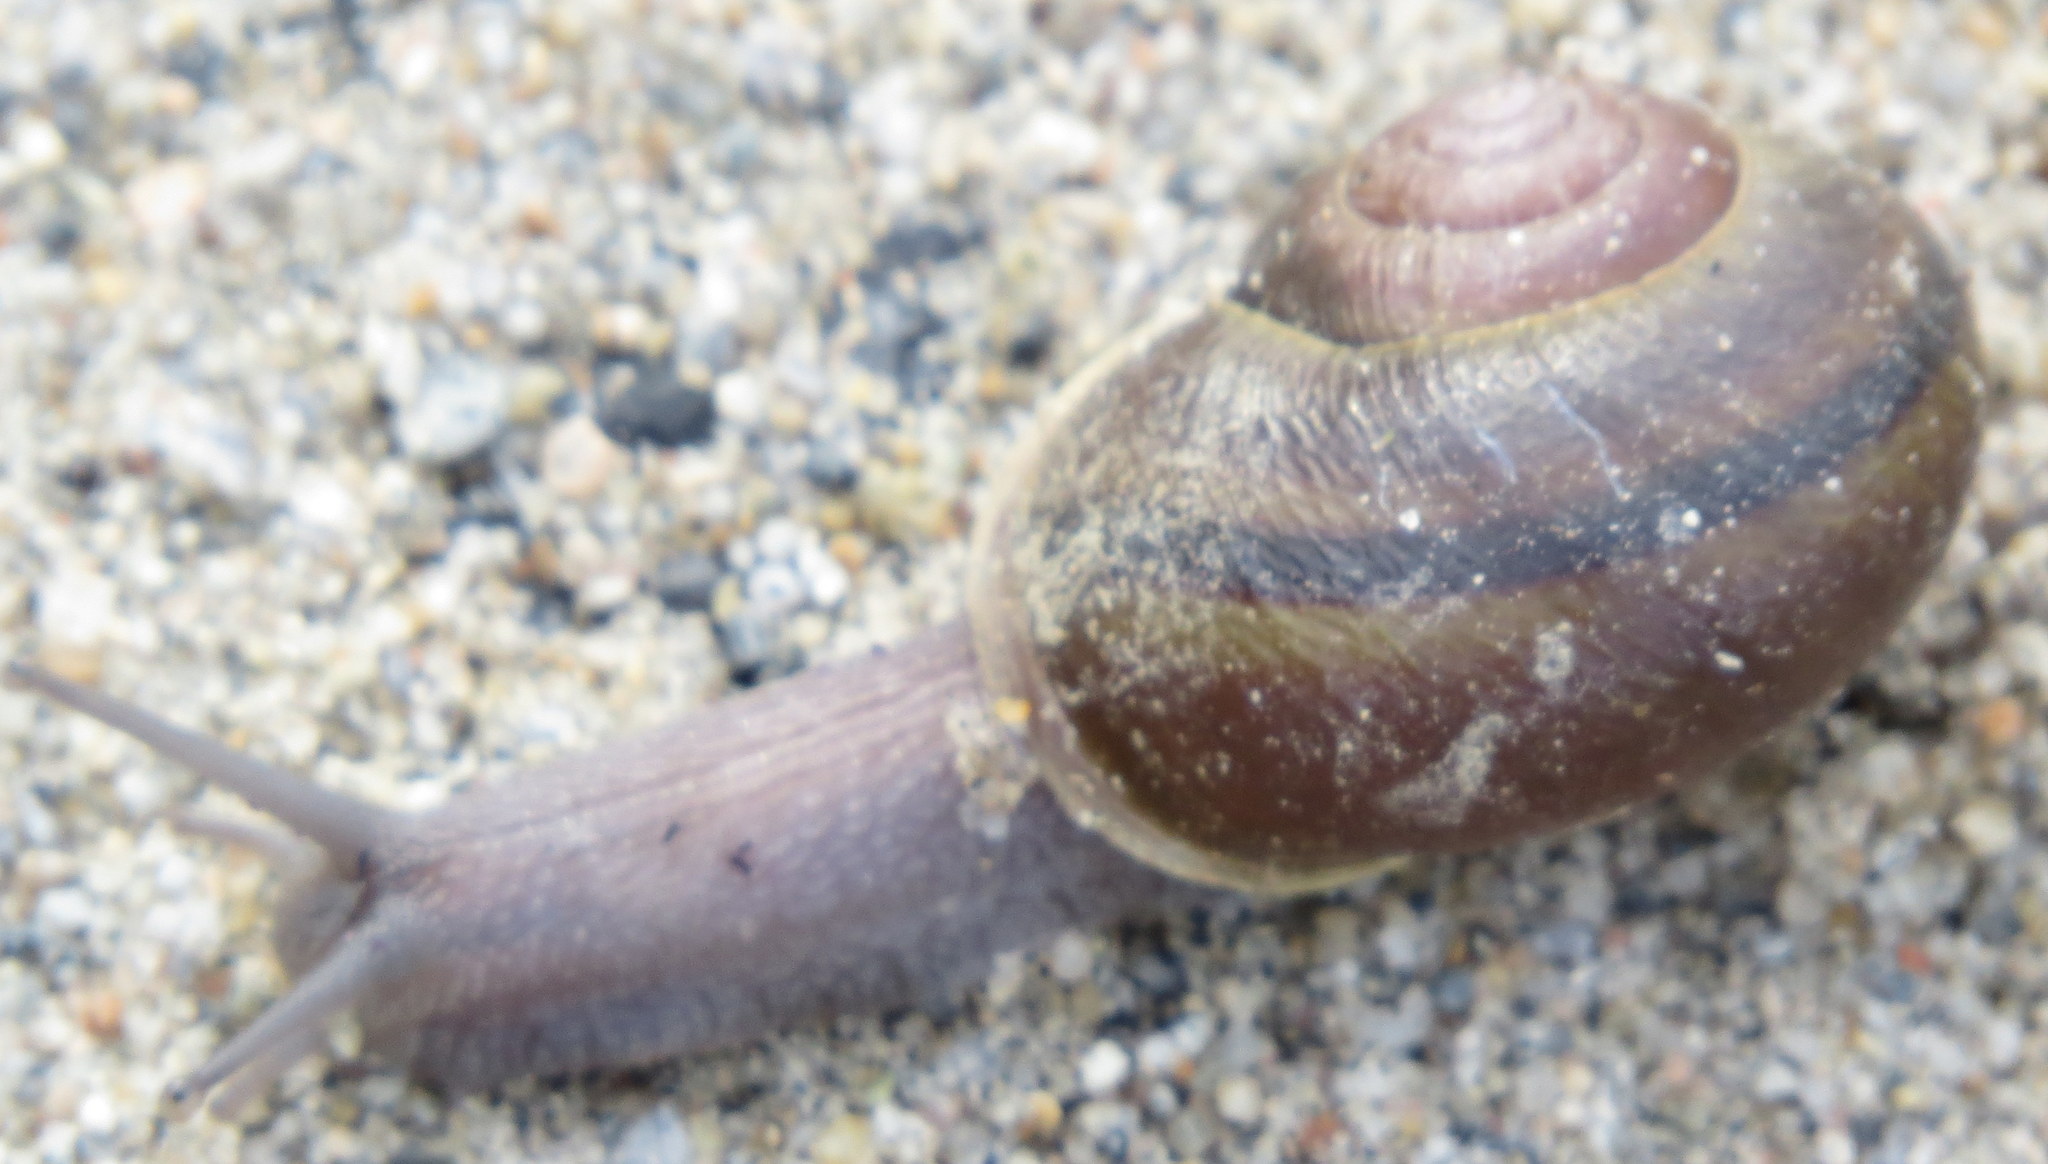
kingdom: Animalia
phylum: Mollusca
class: Gastropoda
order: Stylommatophora
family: Xanthonychidae
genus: Helminthoglypta
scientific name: Helminthoglypta tudiculata
